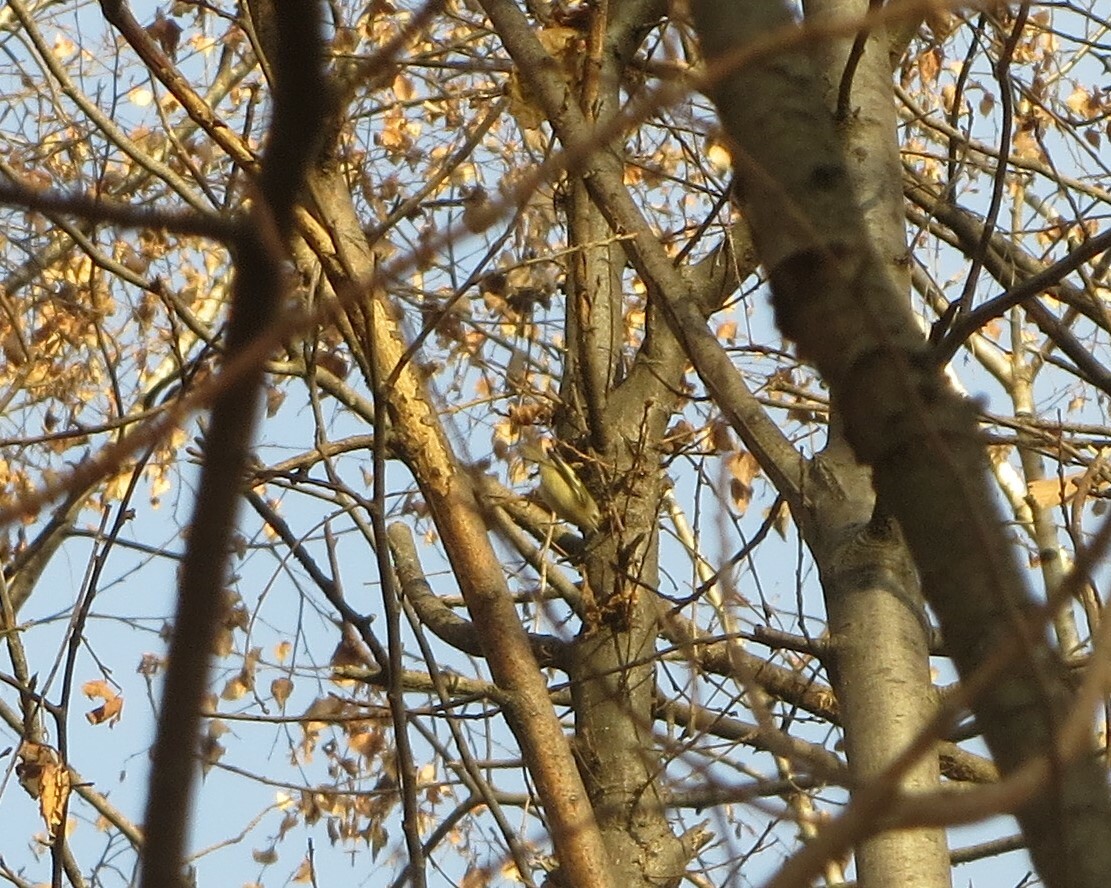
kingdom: Animalia
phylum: Chordata
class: Aves
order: Passeriformes
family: Regulidae
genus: Regulus
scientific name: Regulus regulus
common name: Goldcrest
